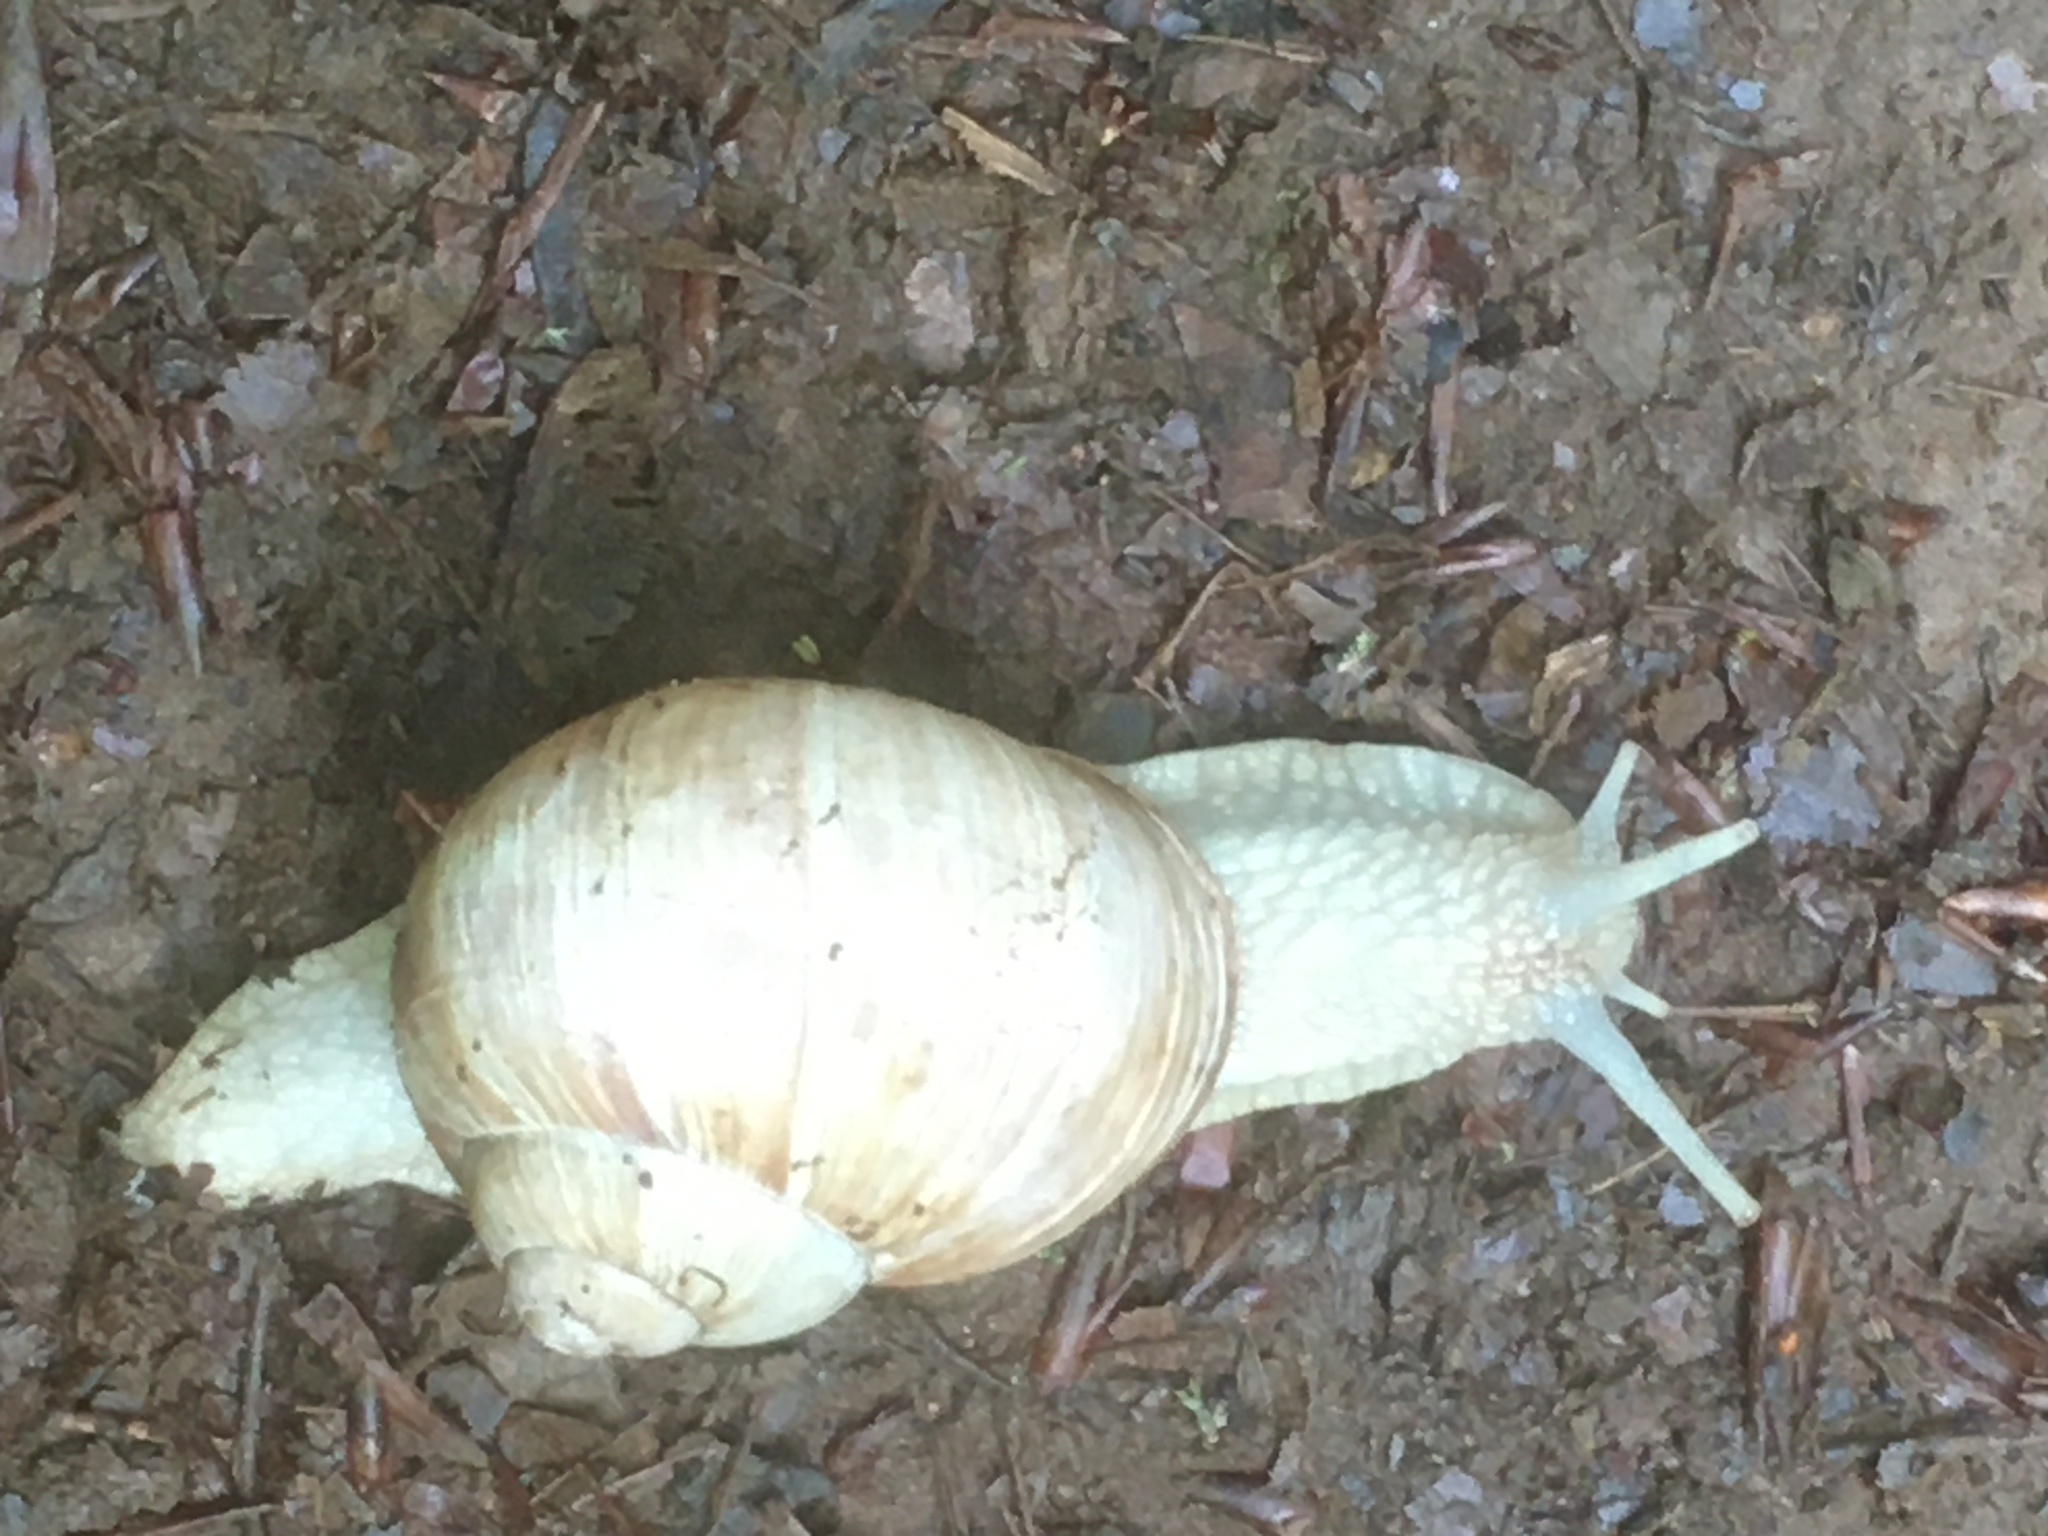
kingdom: Animalia
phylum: Mollusca
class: Gastropoda
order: Stylommatophora
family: Helicidae
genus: Helix
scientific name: Helix pomatia
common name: Roman snail
